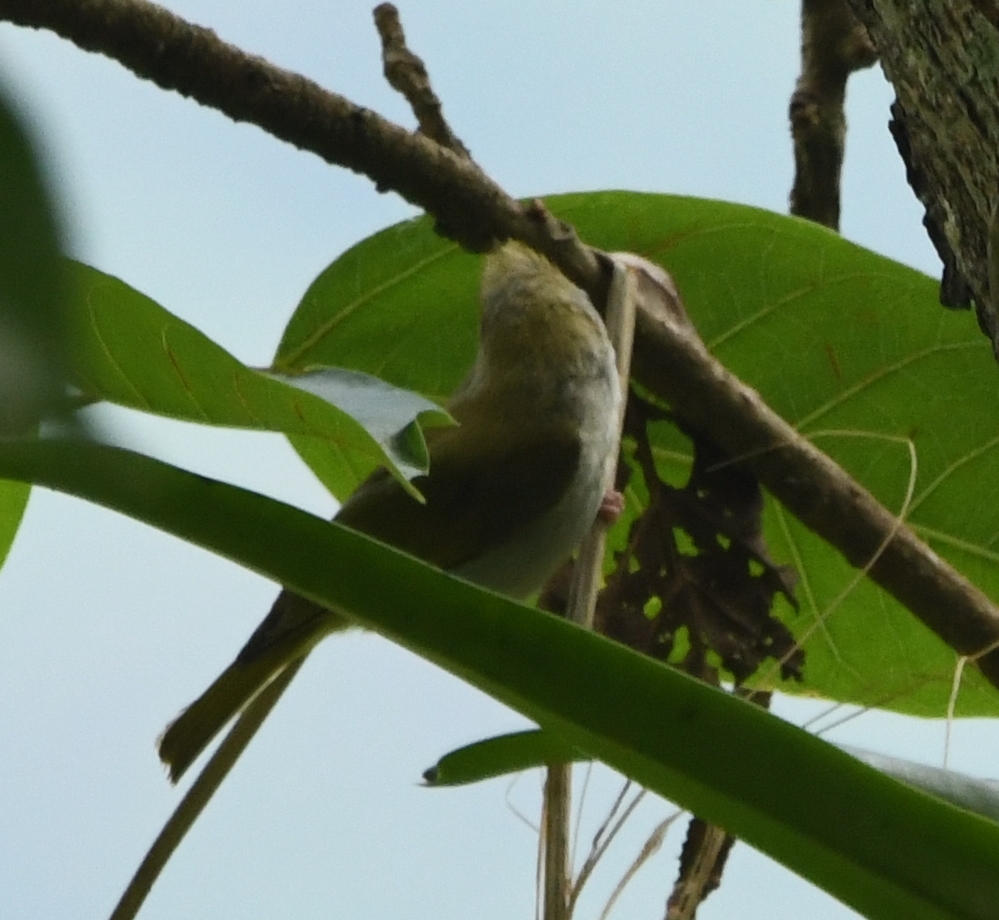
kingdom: Animalia
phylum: Chordata
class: Aves
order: Passeriformes
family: Vireonidae
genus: Erpornis
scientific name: Erpornis zantholeuca
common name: White-bellied erpornis
